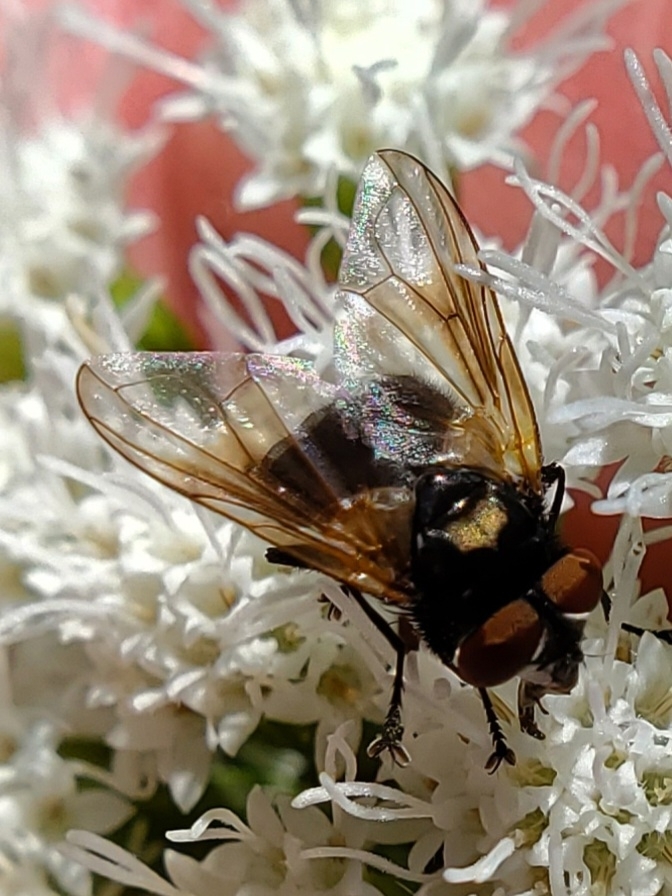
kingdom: Animalia
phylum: Arthropoda
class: Insecta
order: Diptera
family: Tachinidae
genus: Phasia
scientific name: Phasia aurulans
